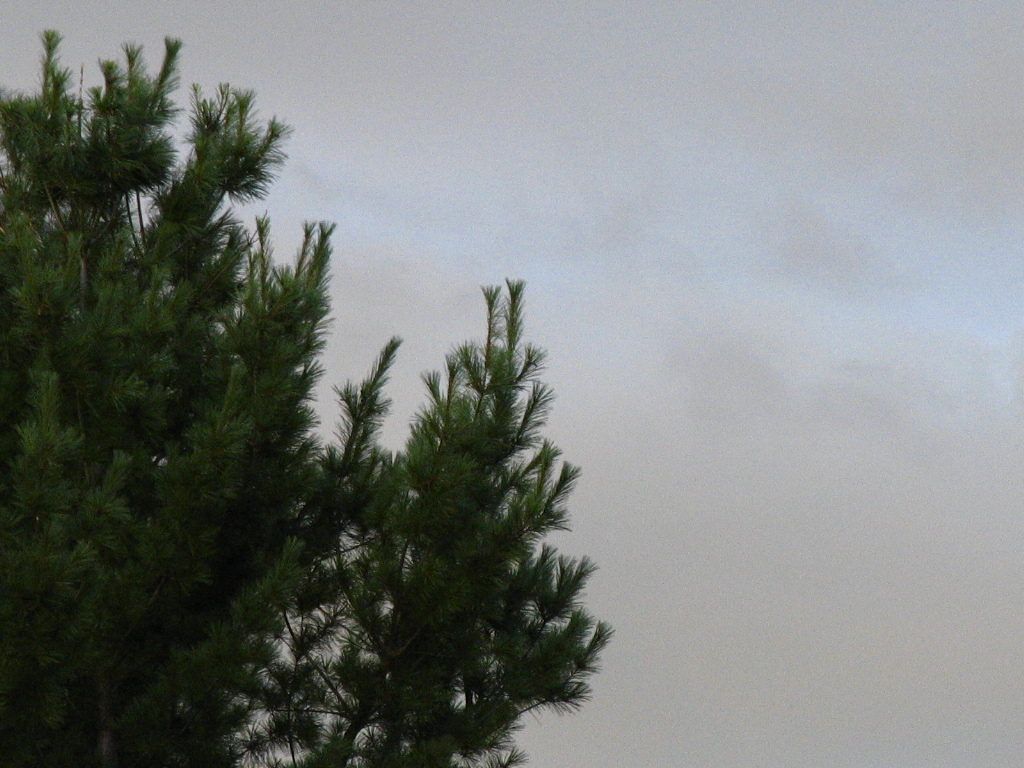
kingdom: Plantae
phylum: Tracheophyta
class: Pinopsida
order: Pinales
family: Pinaceae
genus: Pinus
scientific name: Pinus strobus
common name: Weymouth pine
